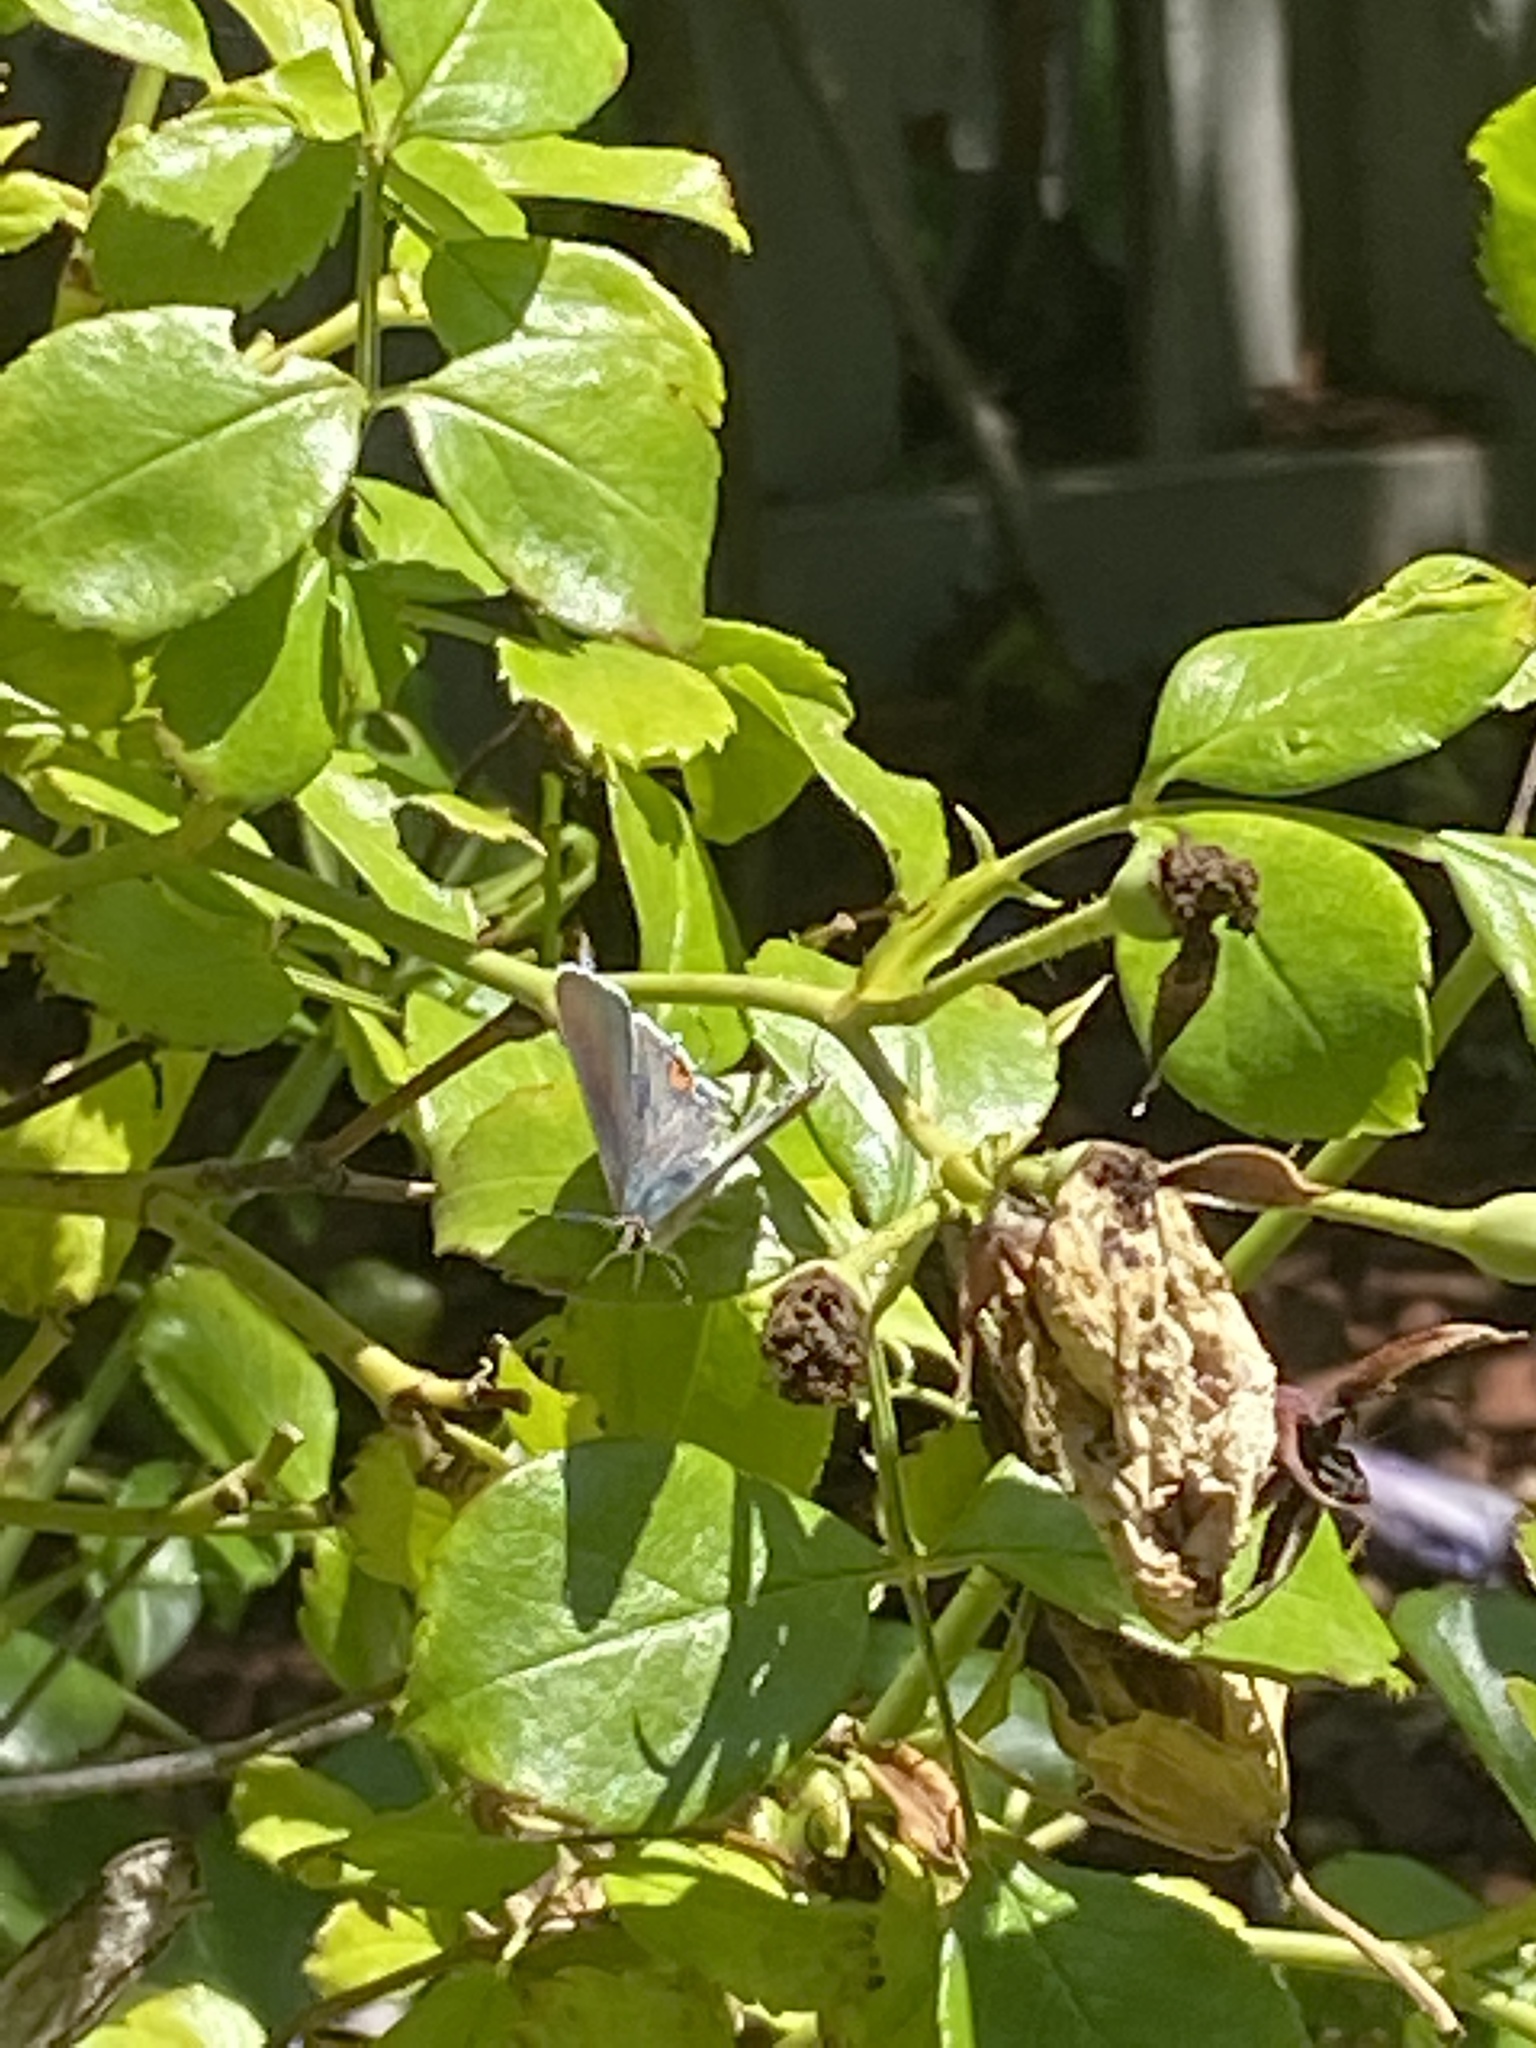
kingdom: Animalia
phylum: Arthropoda
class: Insecta
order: Lepidoptera
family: Lycaenidae
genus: Strymon
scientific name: Strymon melinus
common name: Gray hairstreak
